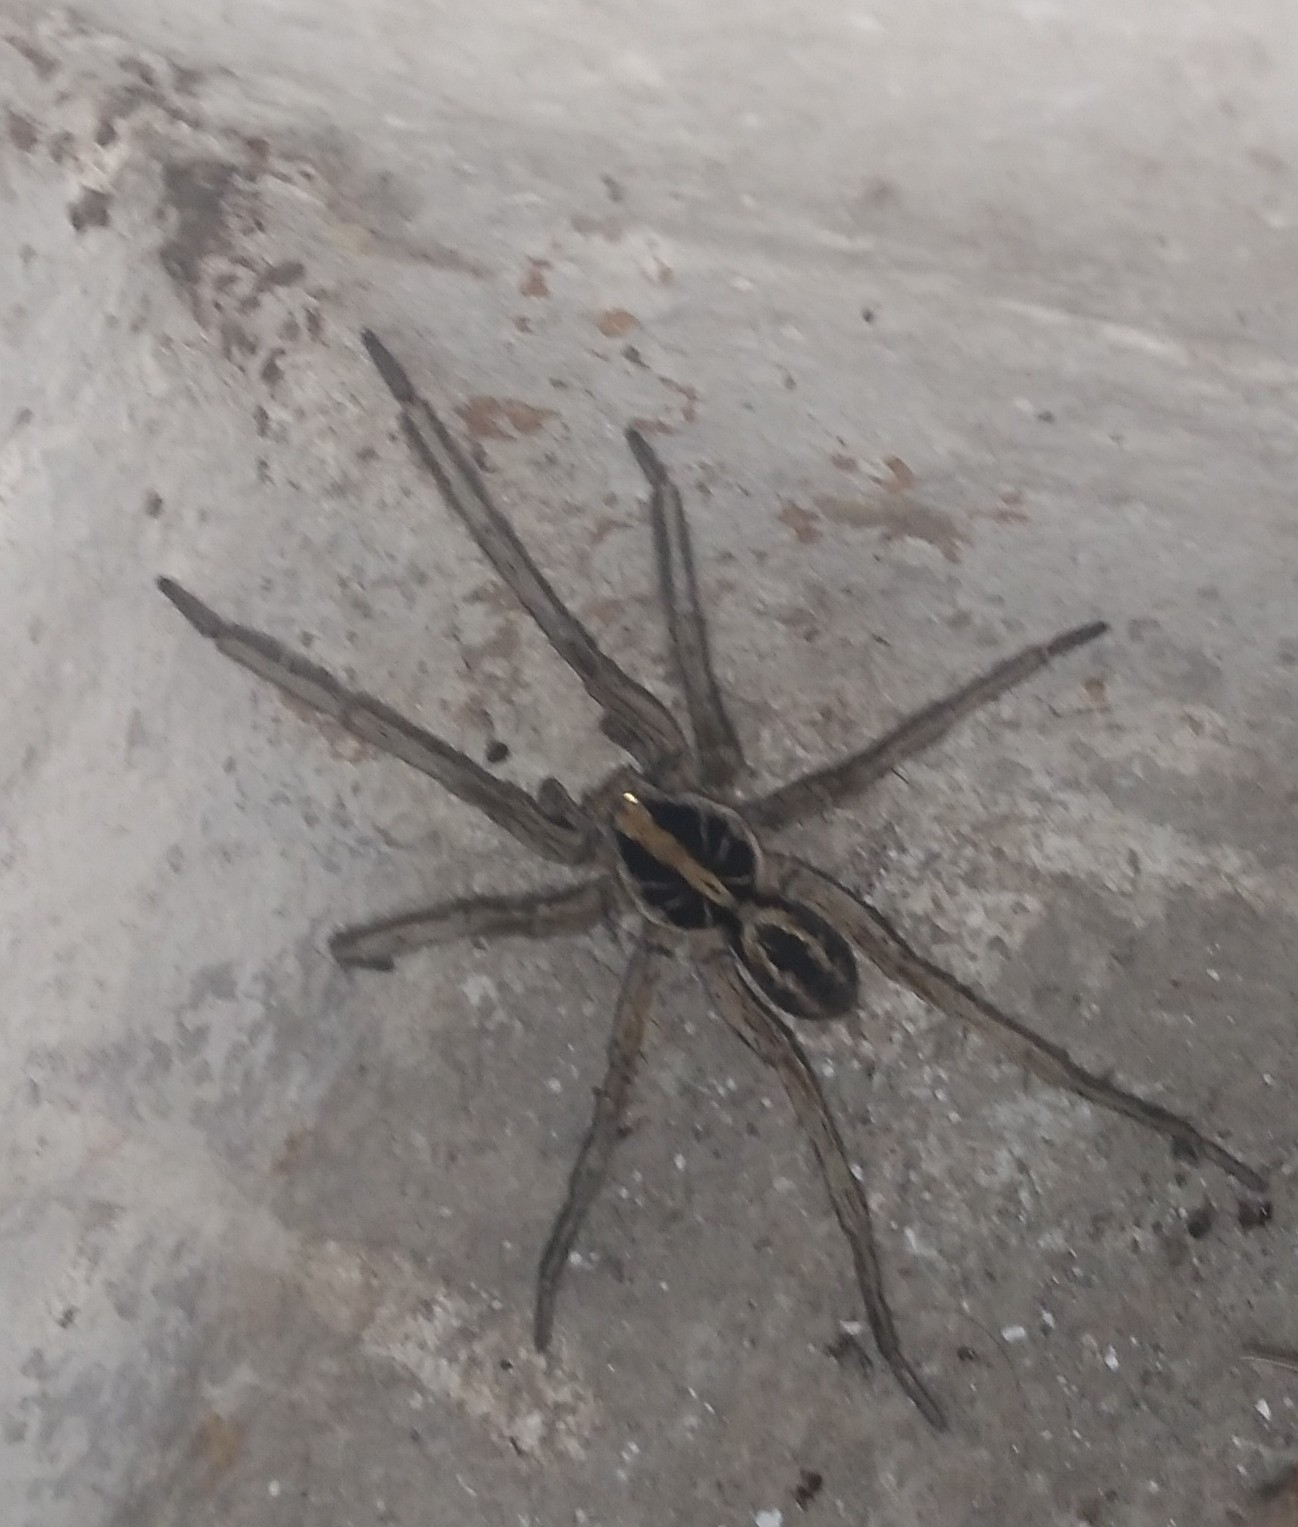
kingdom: Animalia
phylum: Arthropoda
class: Arachnida
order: Araneae
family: Lycosidae
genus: Schizocosa
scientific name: Schizocosa malitiosa
